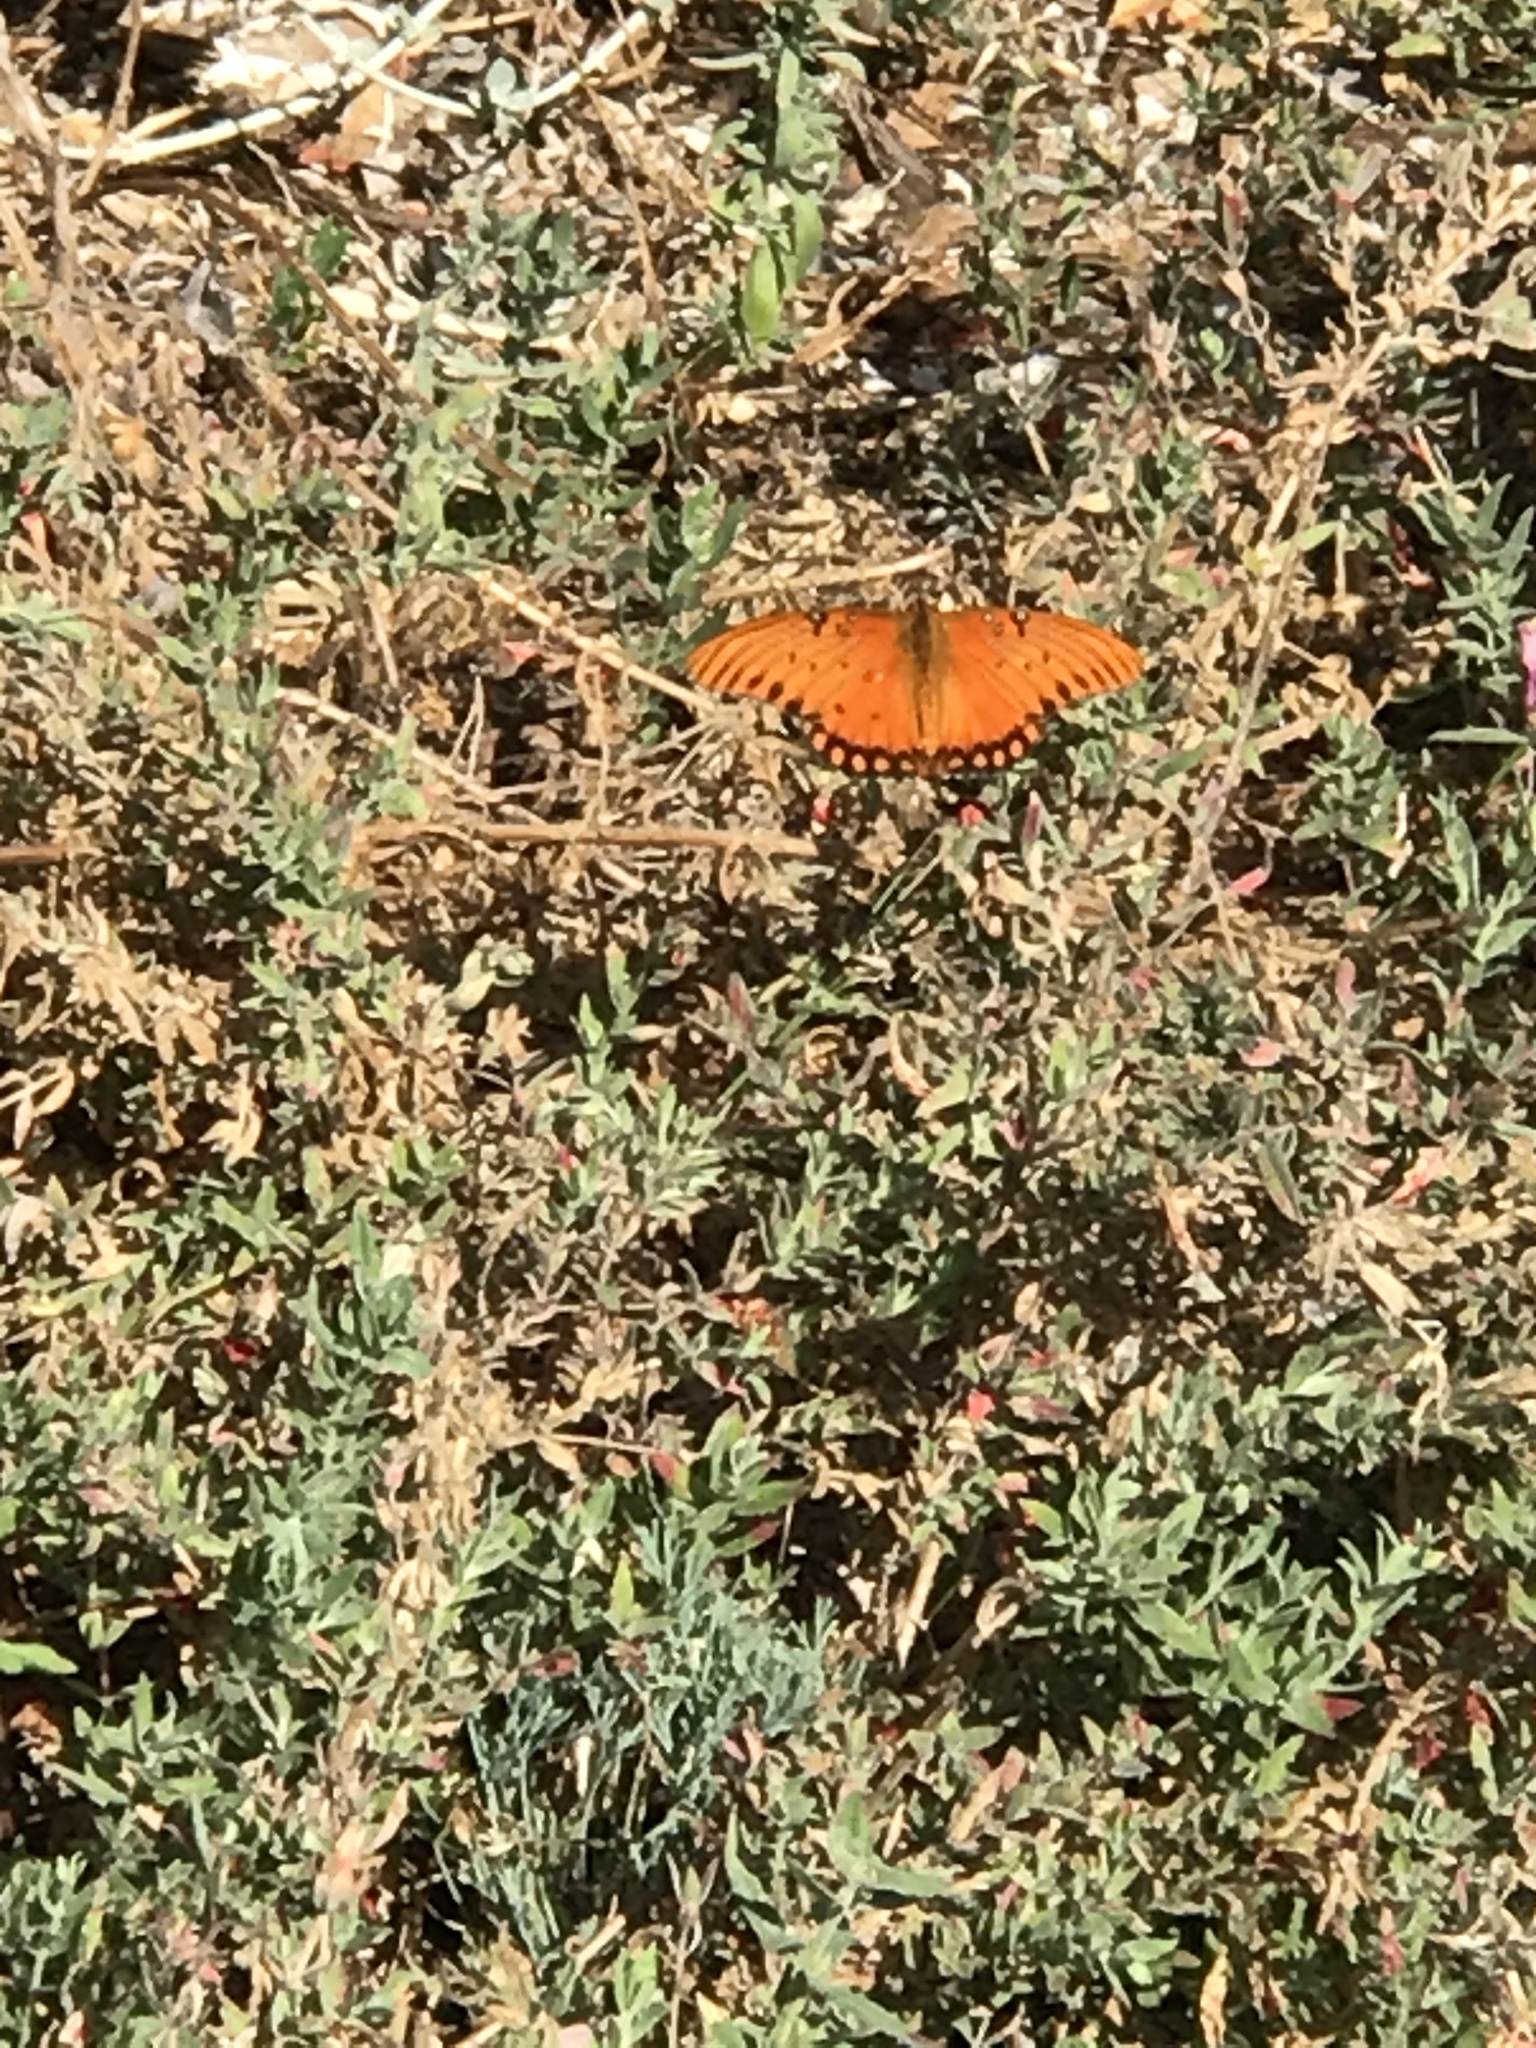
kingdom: Animalia
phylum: Arthropoda
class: Insecta
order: Lepidoptera
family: Nymphalidae
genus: Dione
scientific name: Dione vanillae
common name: Gulf fritillary
